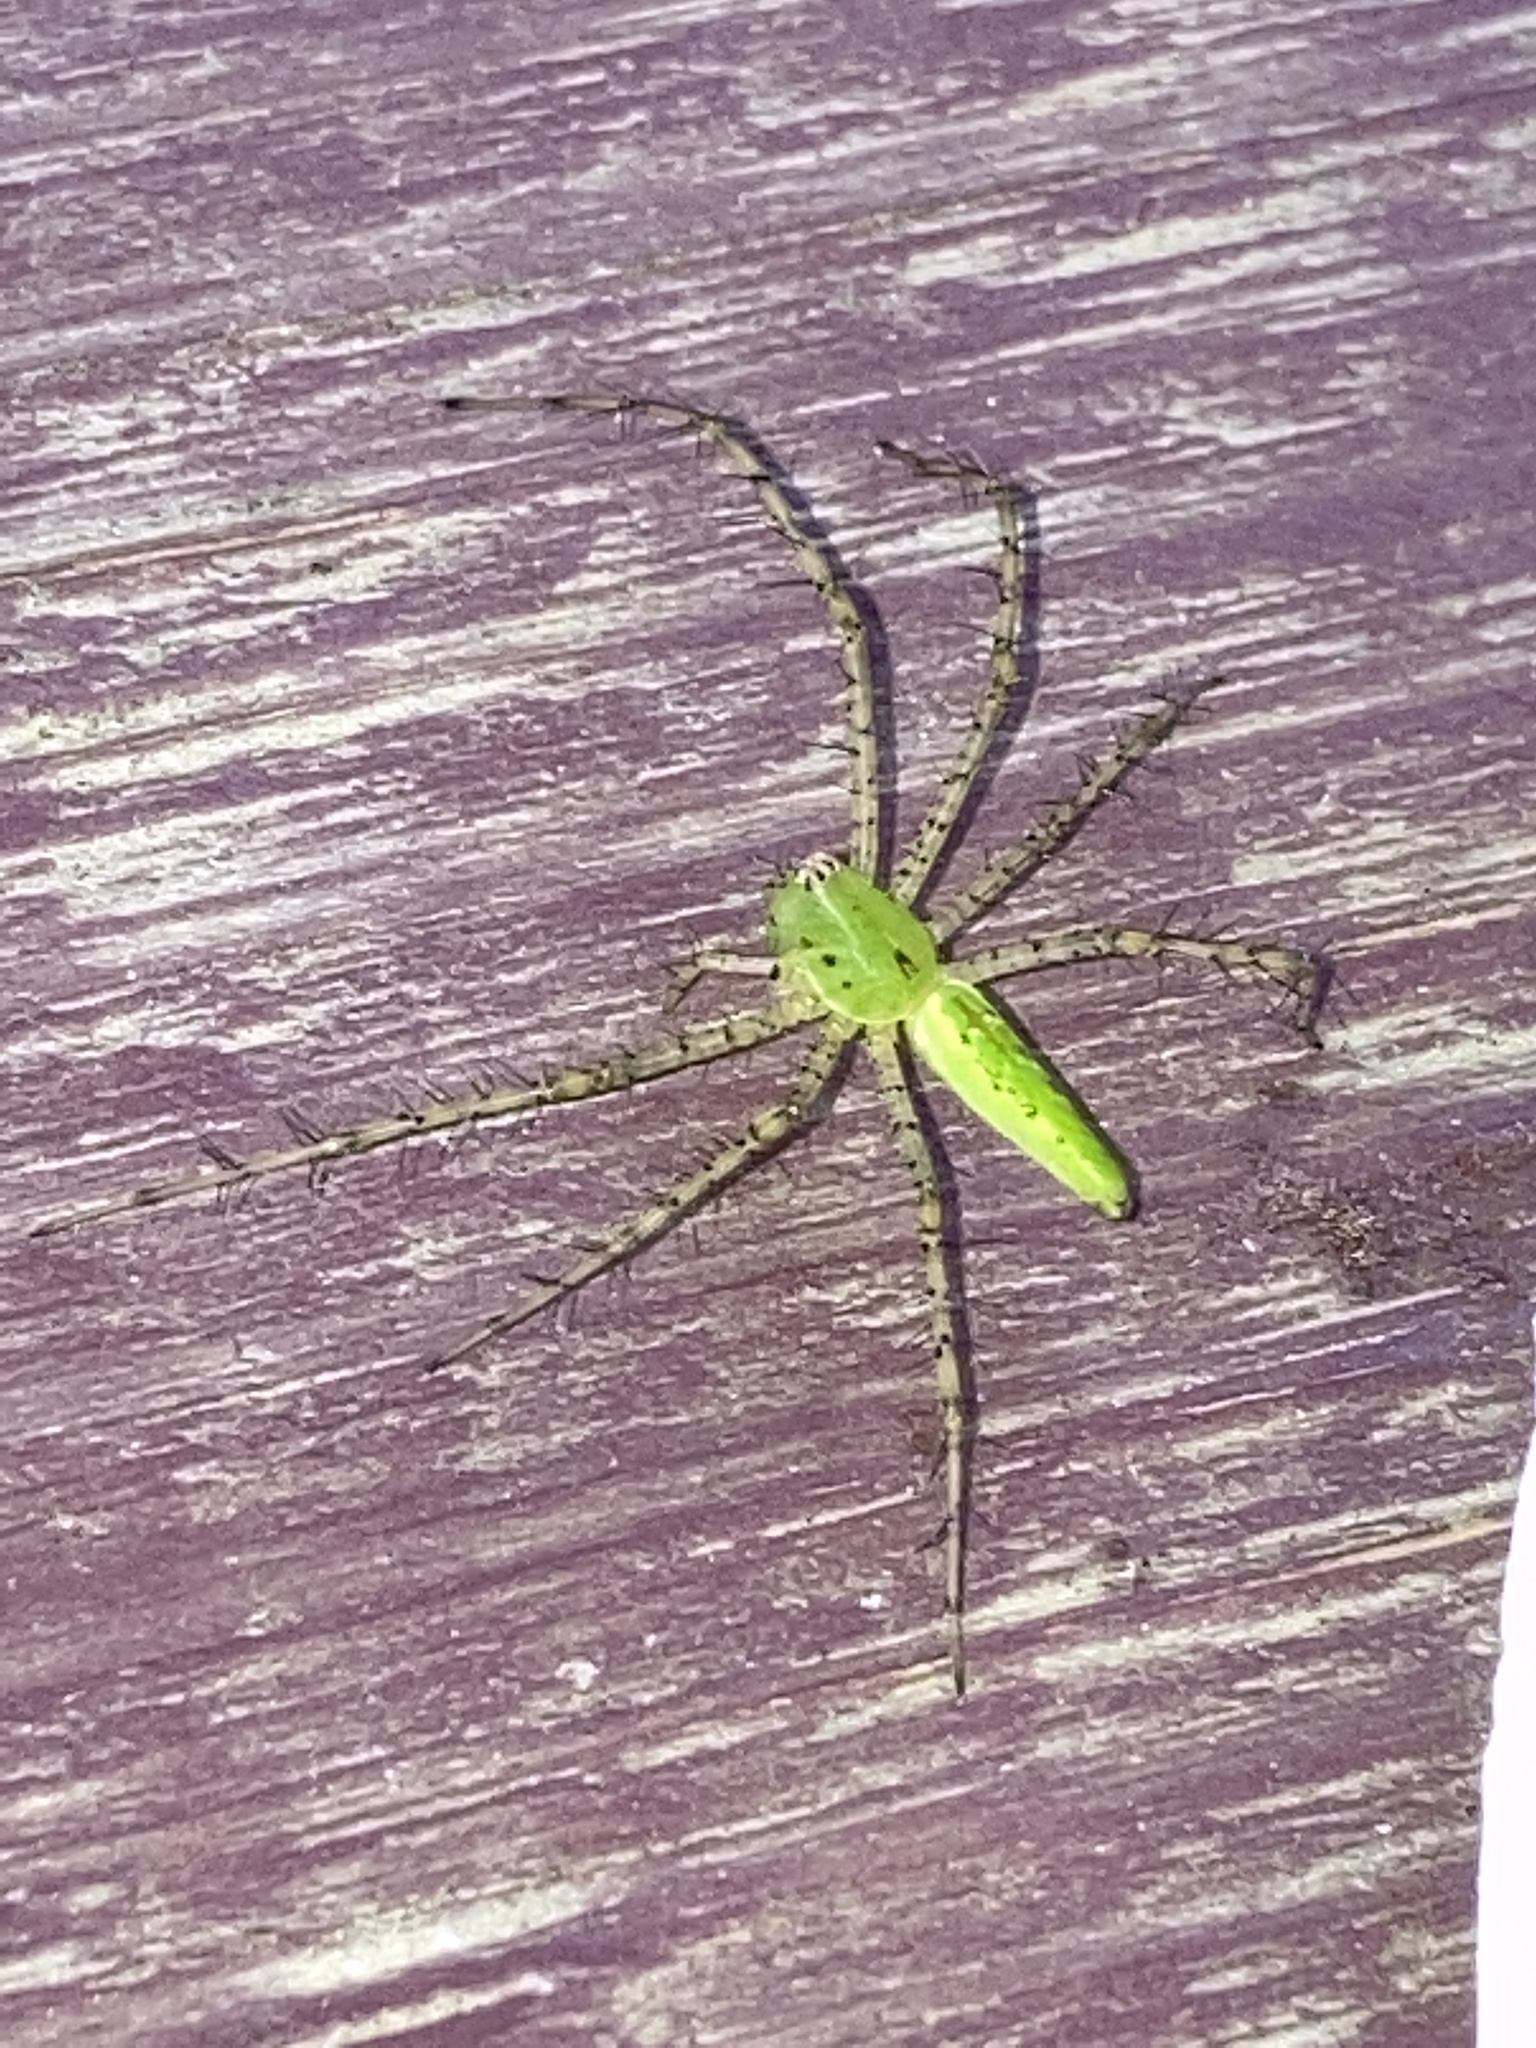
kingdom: Animalia
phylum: Arthropoda
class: Arachnida
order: Araneae
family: Oxyopidae
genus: Peucetia
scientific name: Peucetia viridans
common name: Lynx spiders
